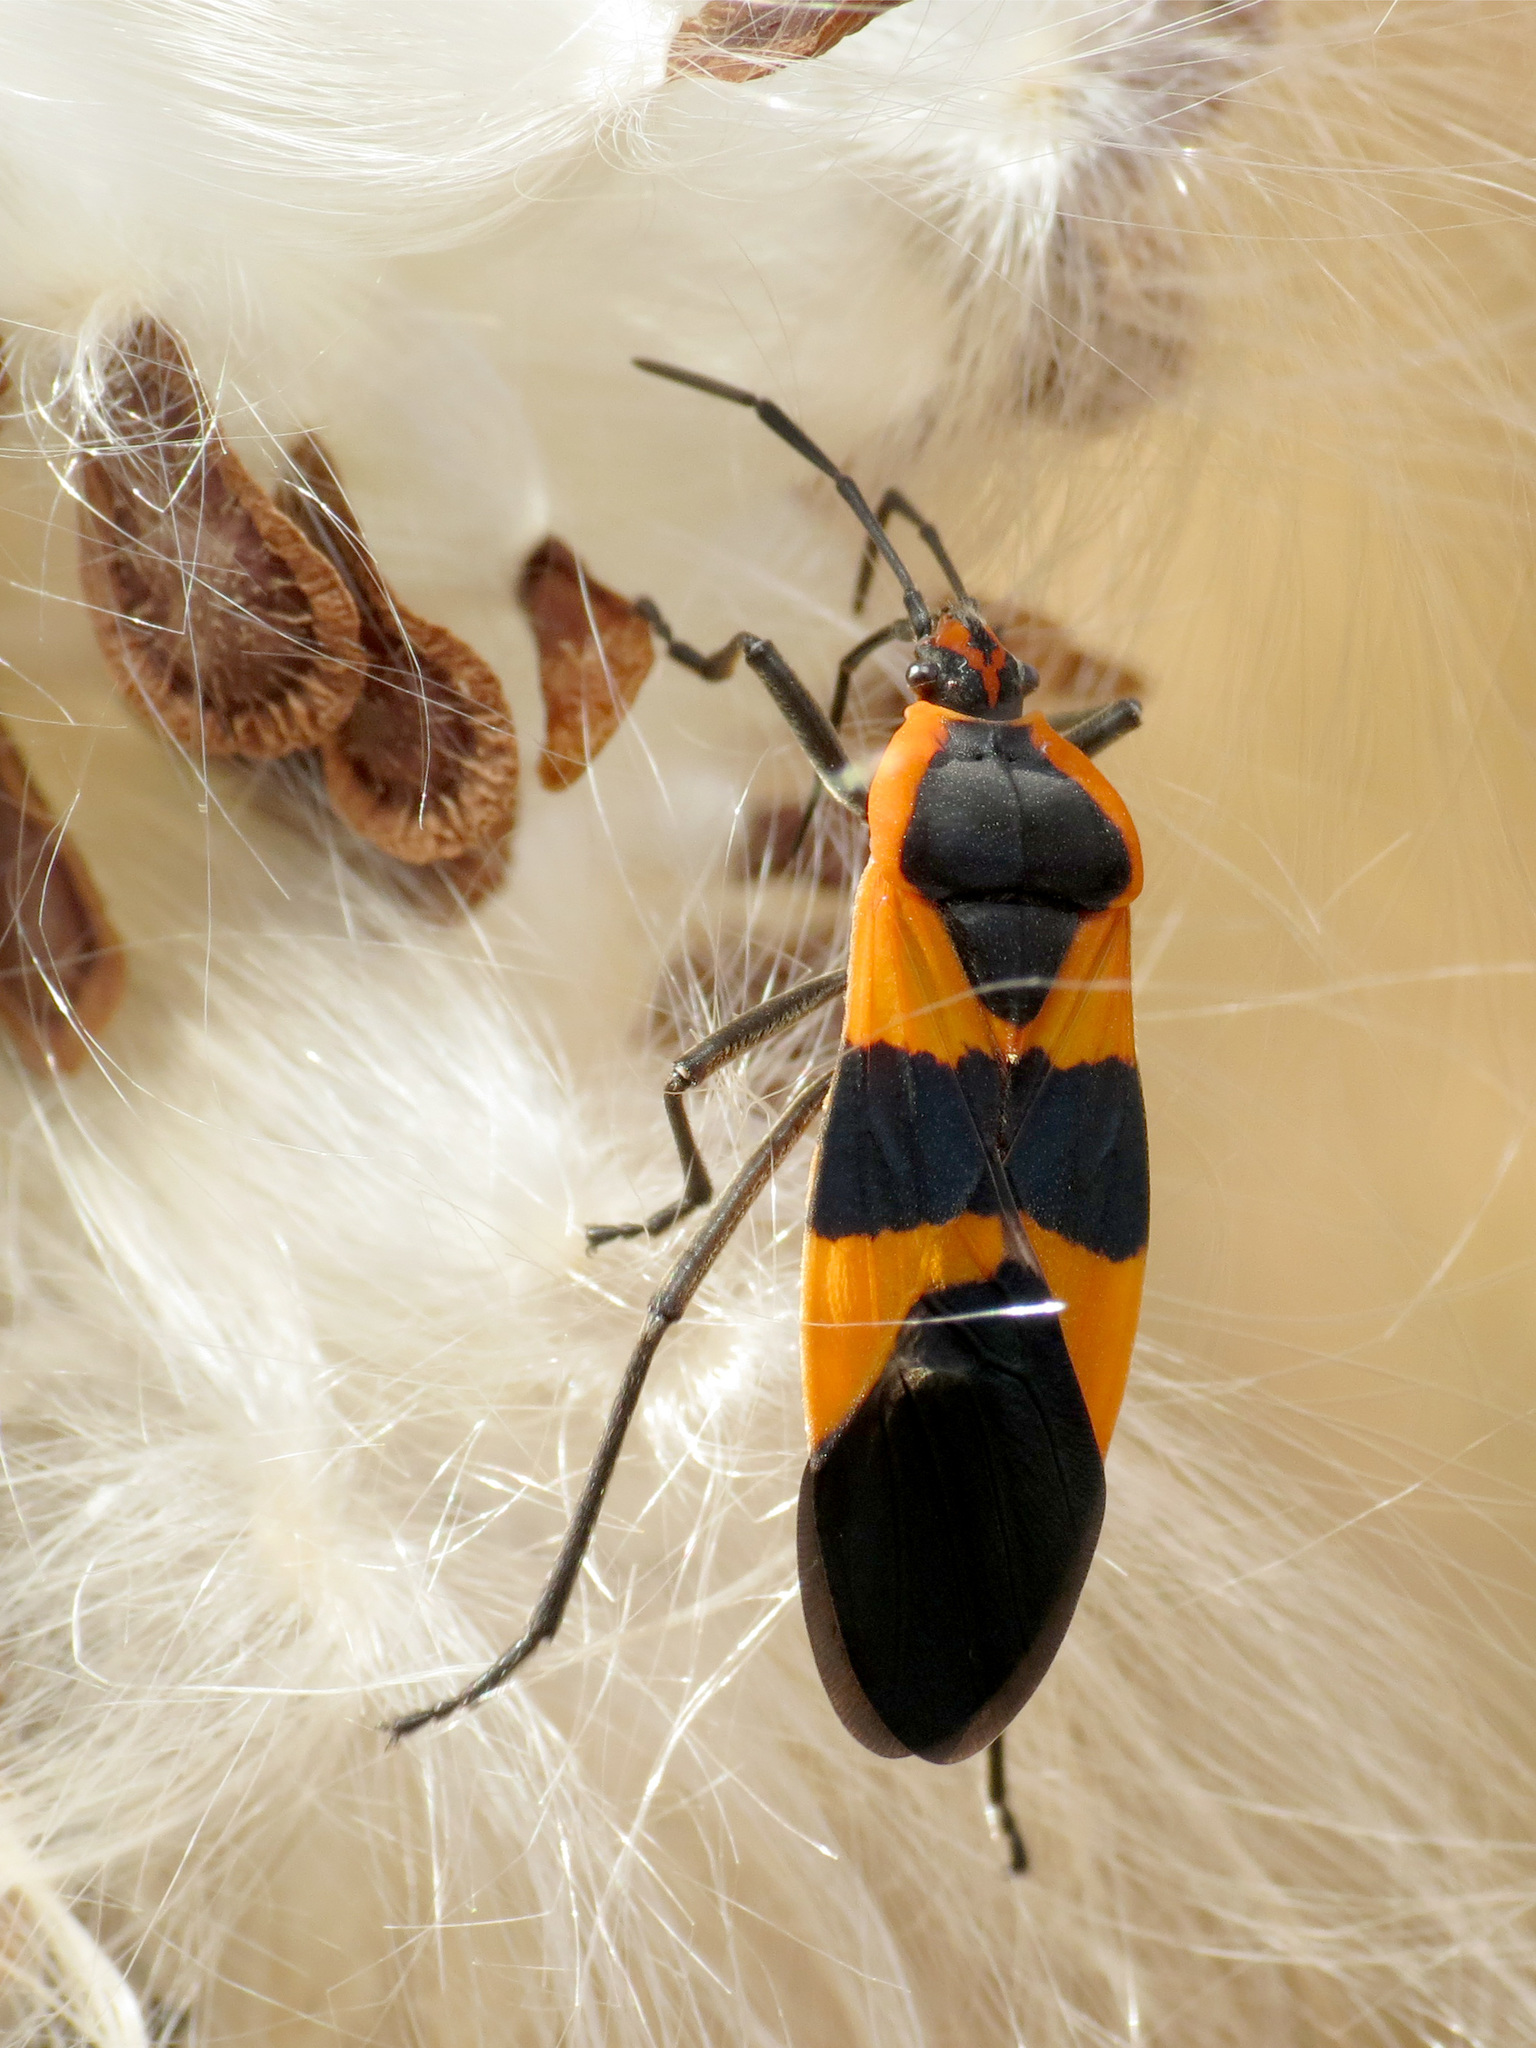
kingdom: Animalia
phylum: Arthropoda
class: Insecta
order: Hemiptera
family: Lygaeidae
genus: Oncopeltus
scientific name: Oncopeltus fasciatus
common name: Large milkweed bug
